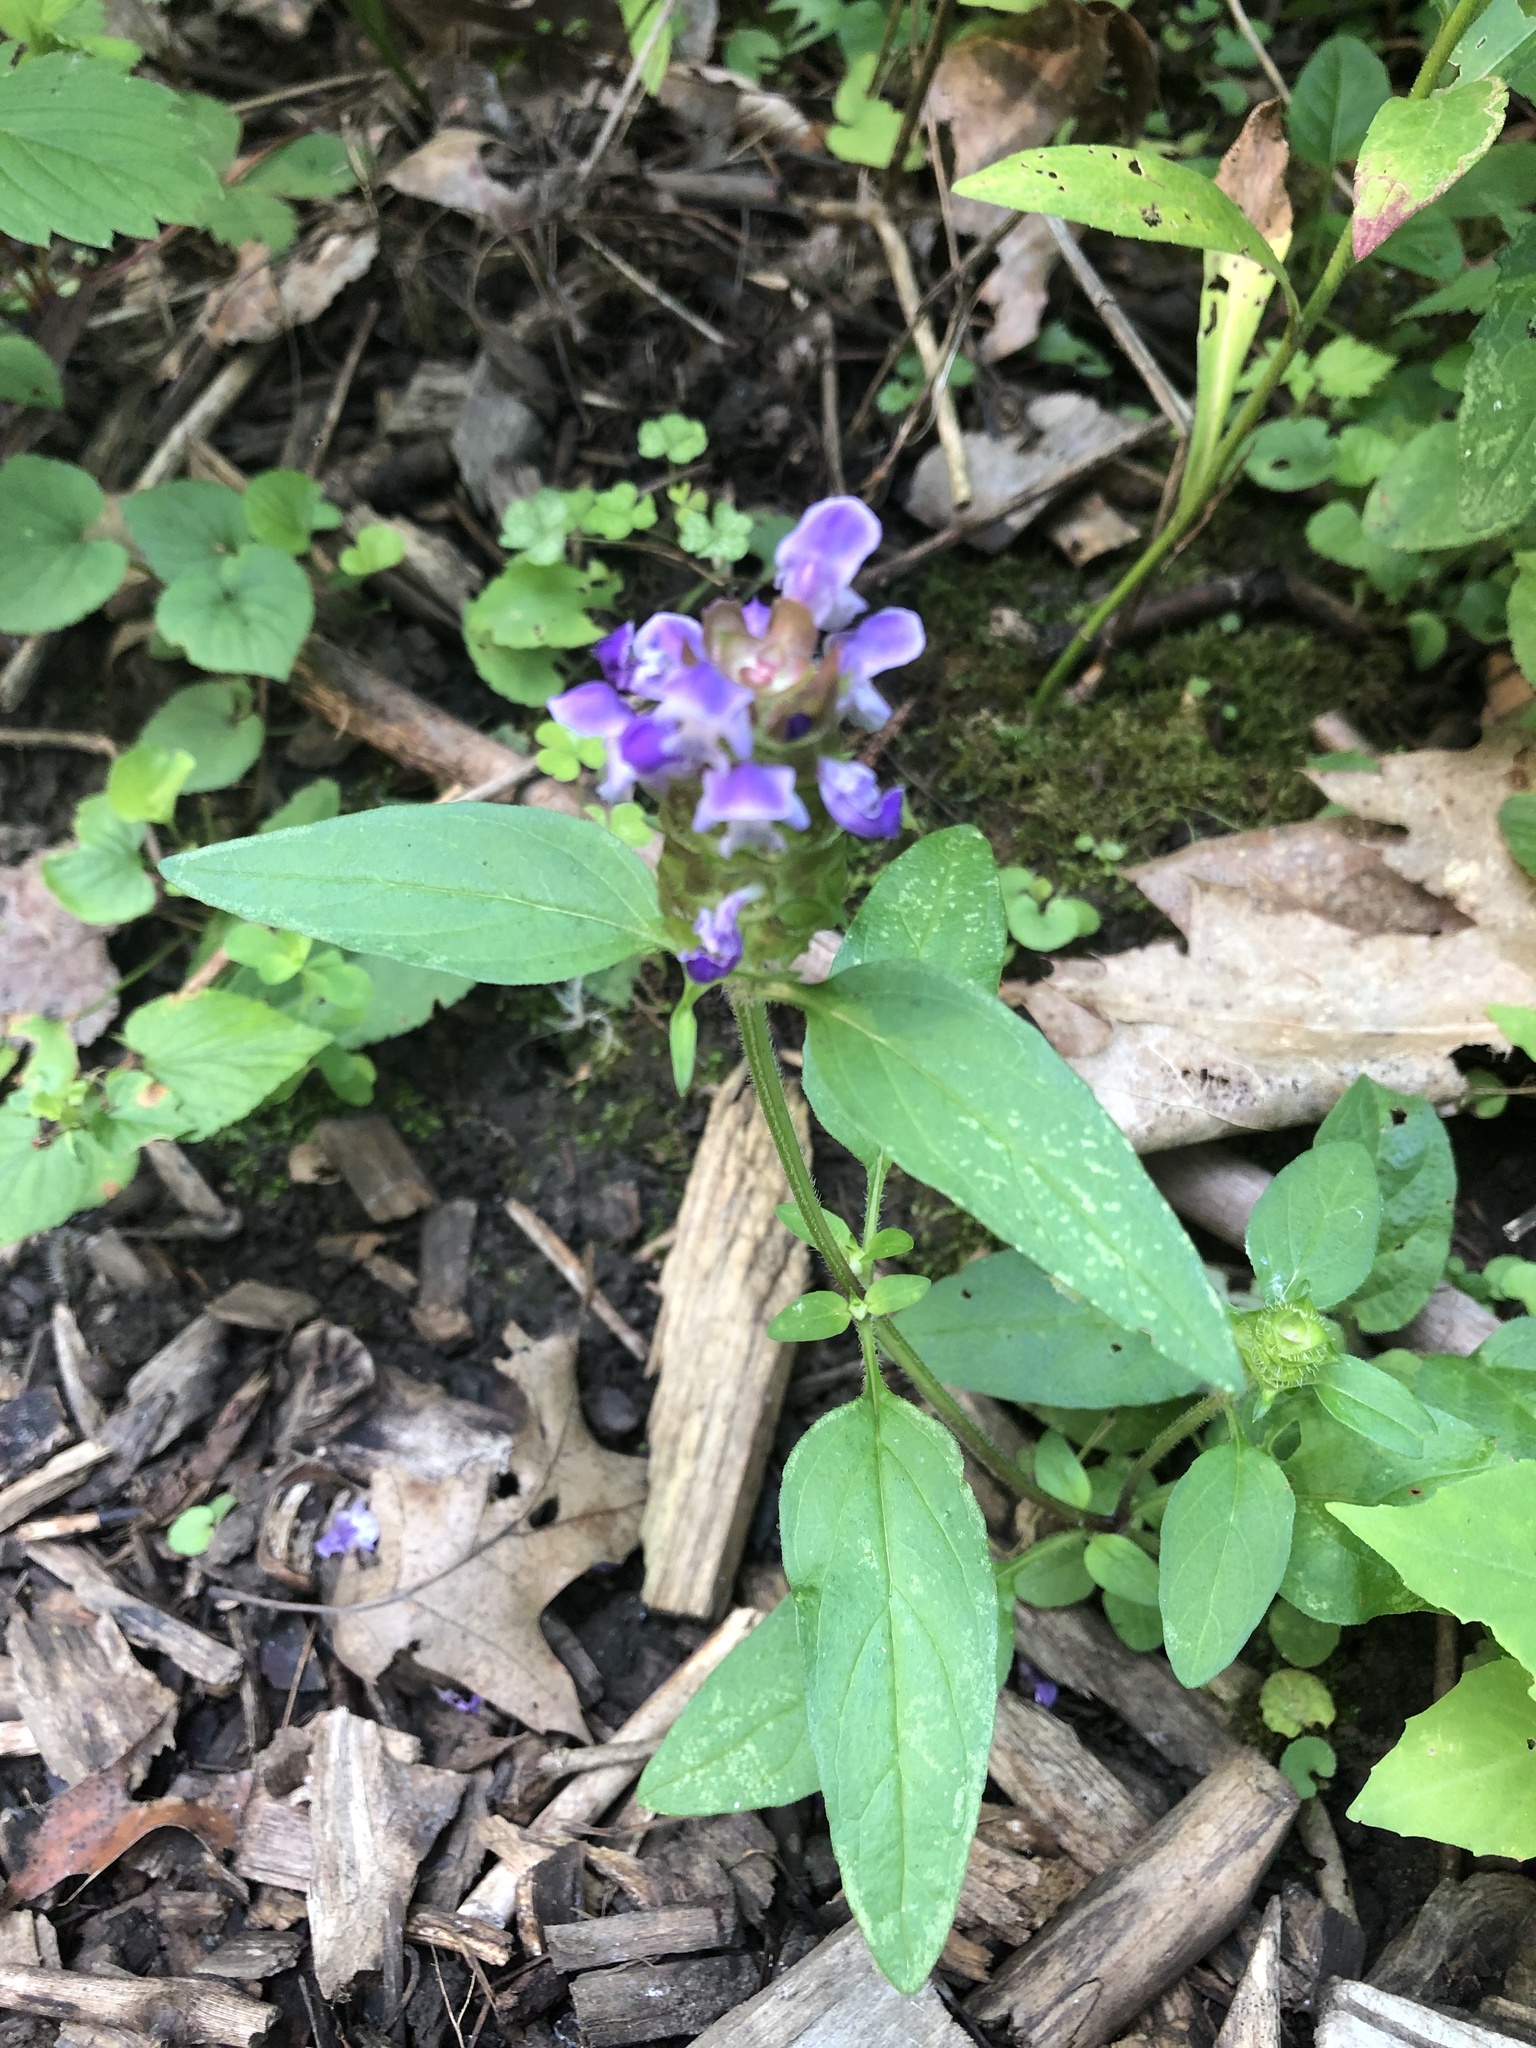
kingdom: Plantae
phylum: Tracheophyta
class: Magnoliopsida
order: Lamiales
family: Lamiaceae
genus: Prunella
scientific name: Prunella vulgaris
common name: Heal-all
